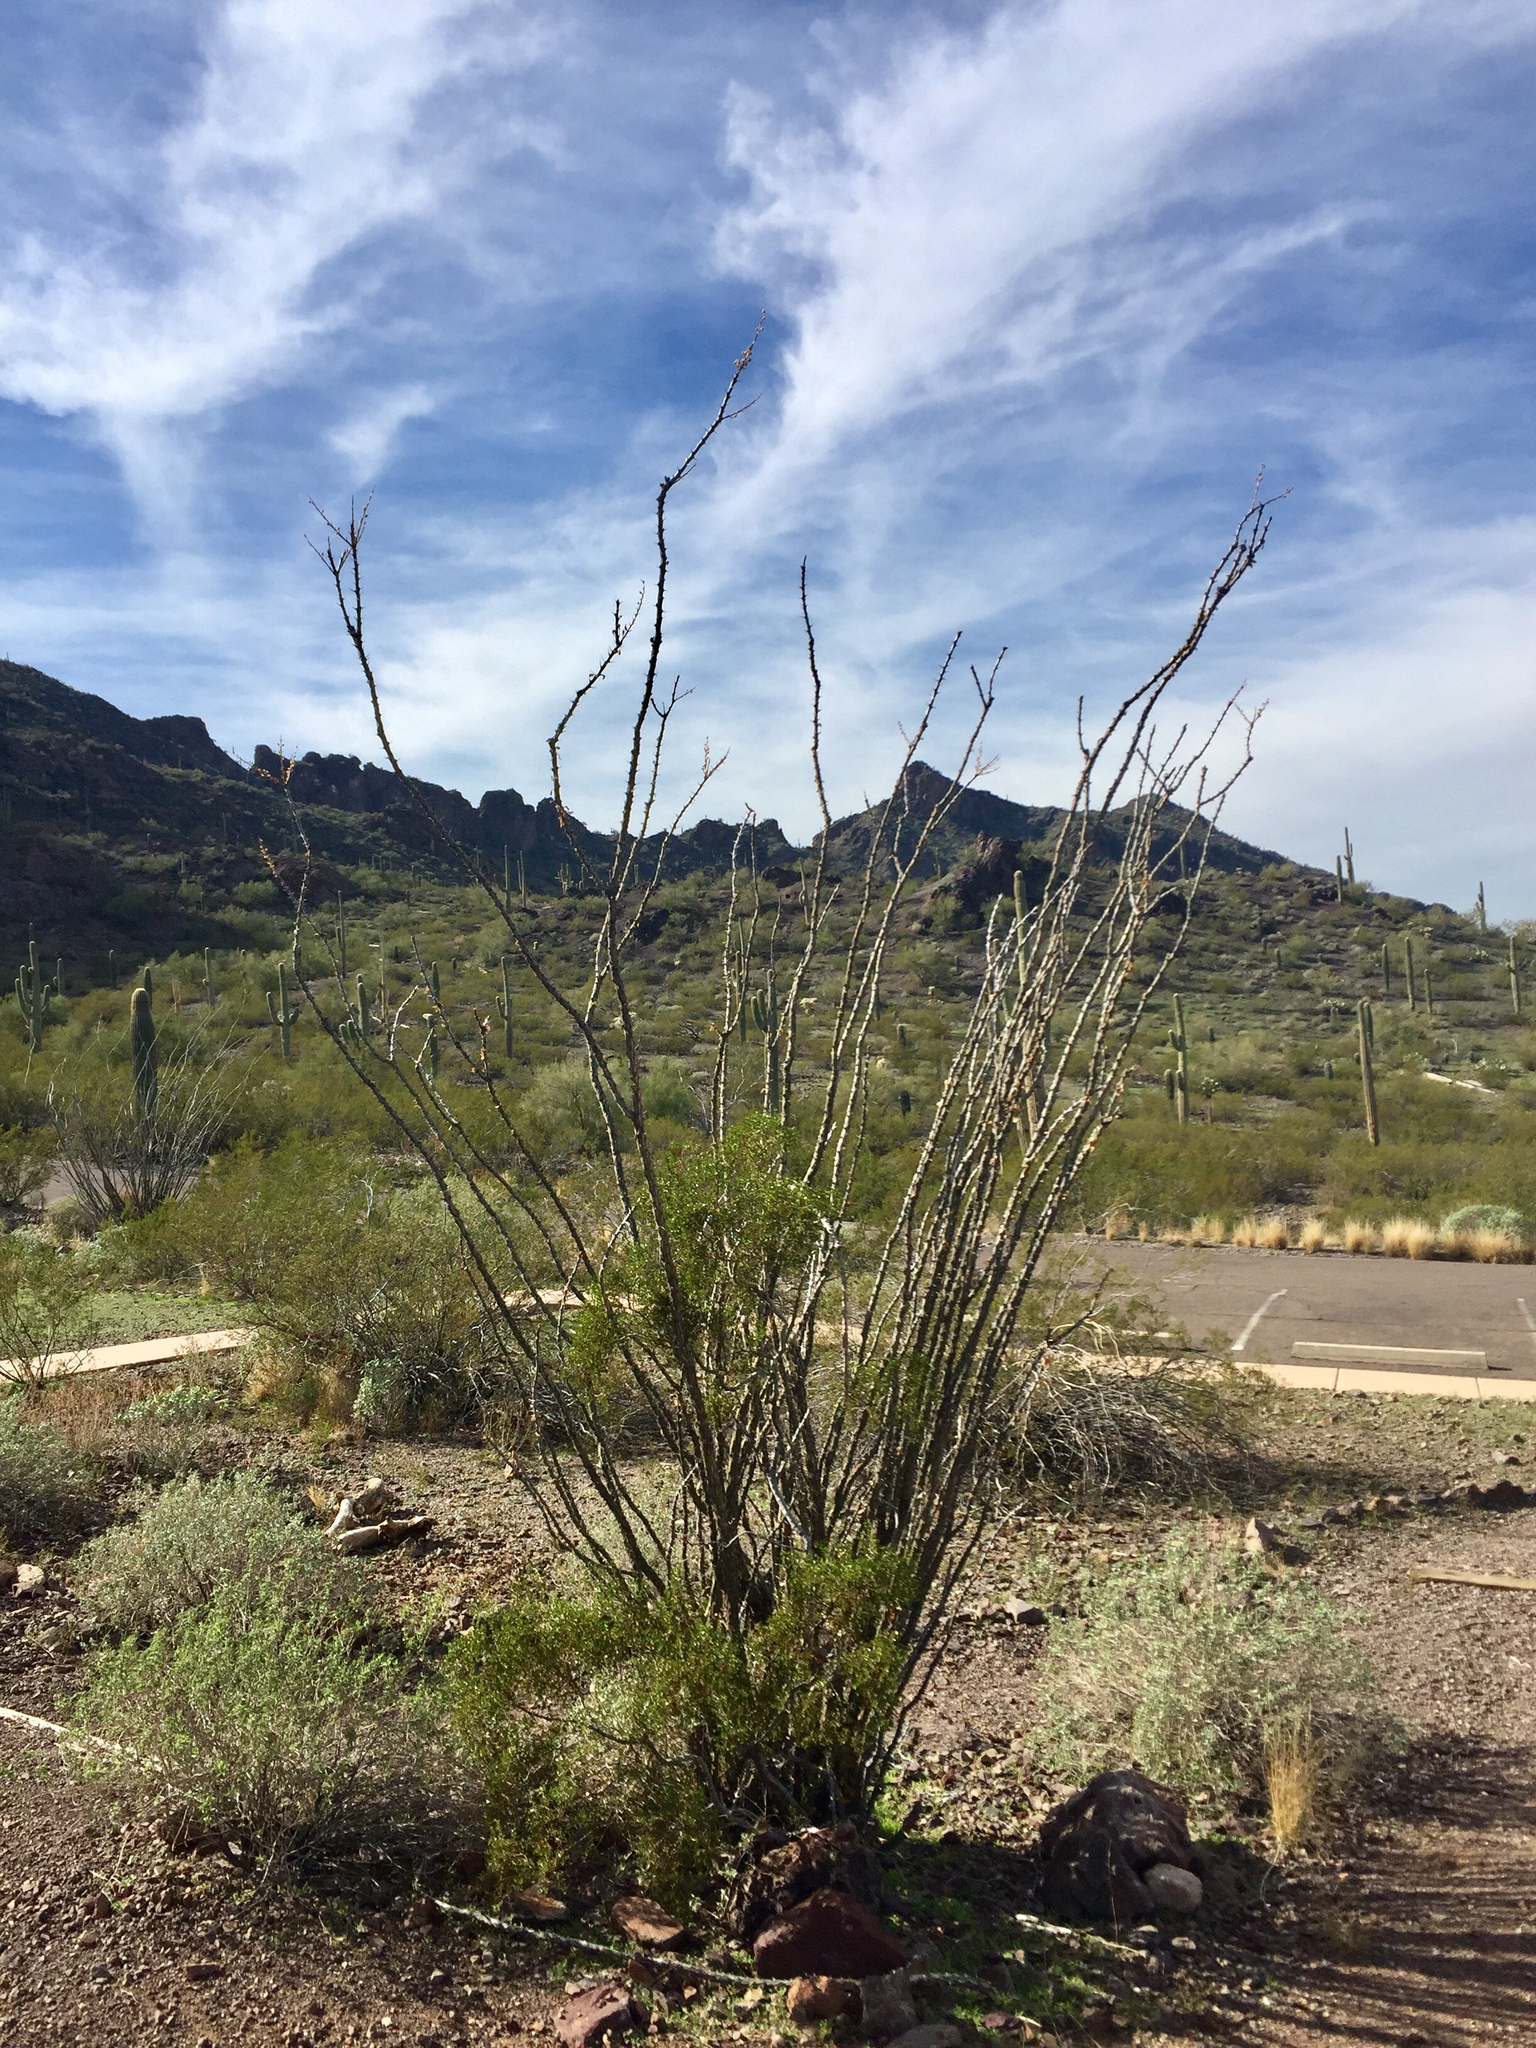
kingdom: Plantae
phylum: Tracheophyta
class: Magnoliopsida
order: Ericales
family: Fouquieriaceae
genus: Fouquieria
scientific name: Fouquieria splendens
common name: Vine-cactus
